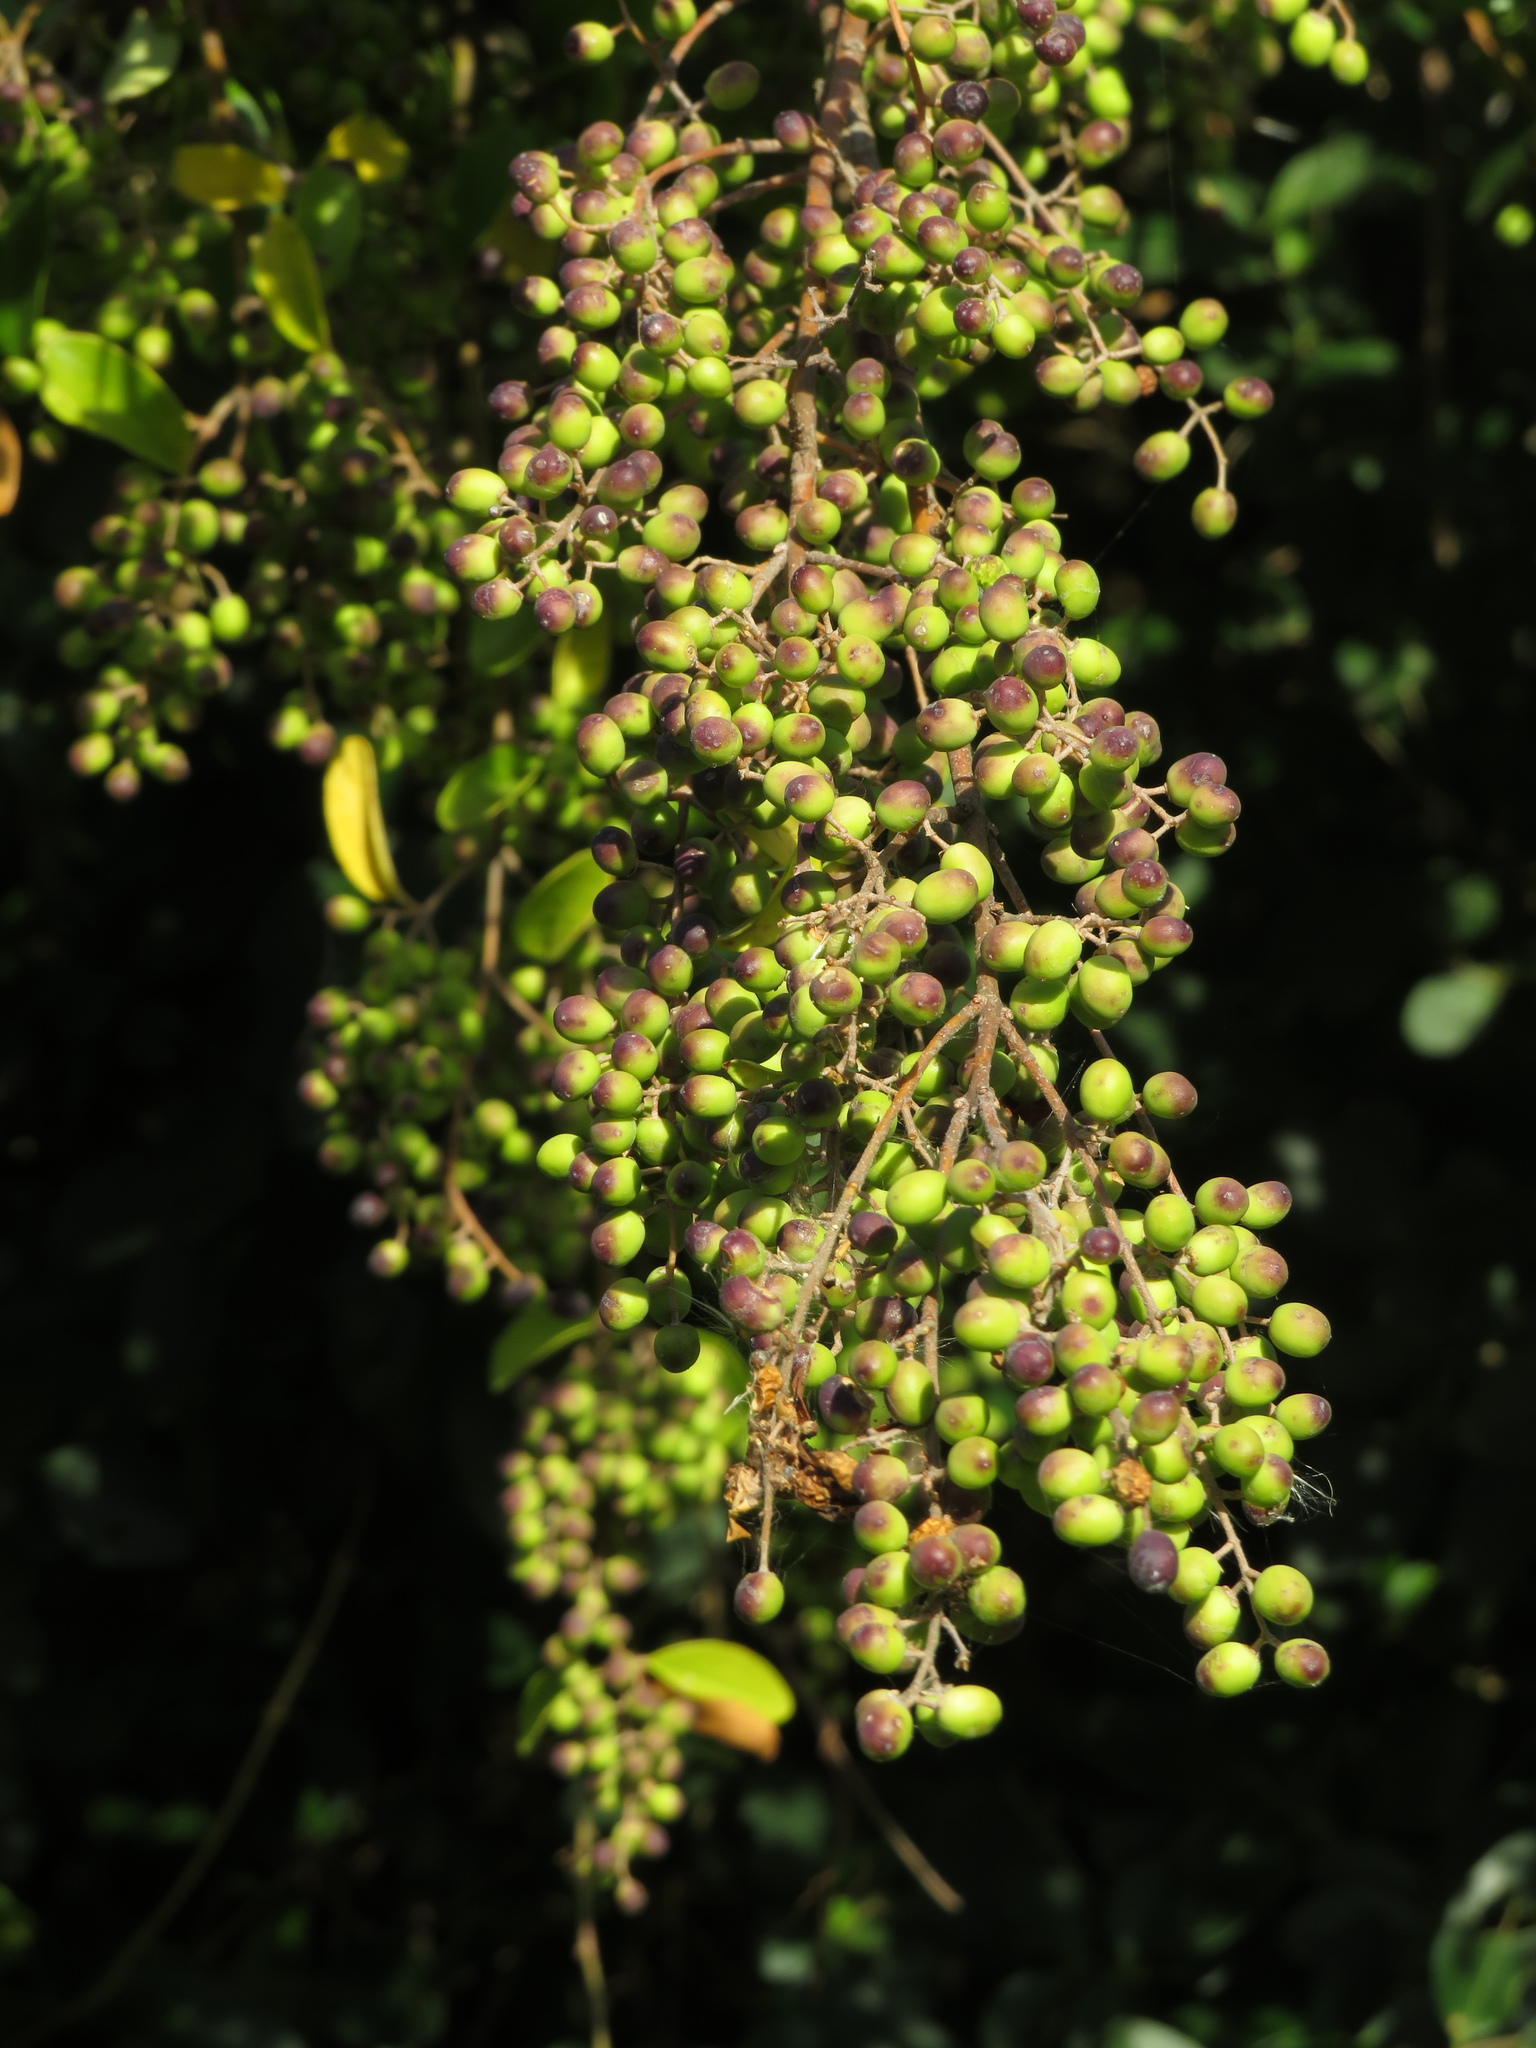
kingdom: Plantae
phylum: Tracheophyta
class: Magnoliopsida
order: Lamiales
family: Oleaceae
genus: Ligustrum
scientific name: Ligustrum lucidum
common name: Glossy privet
